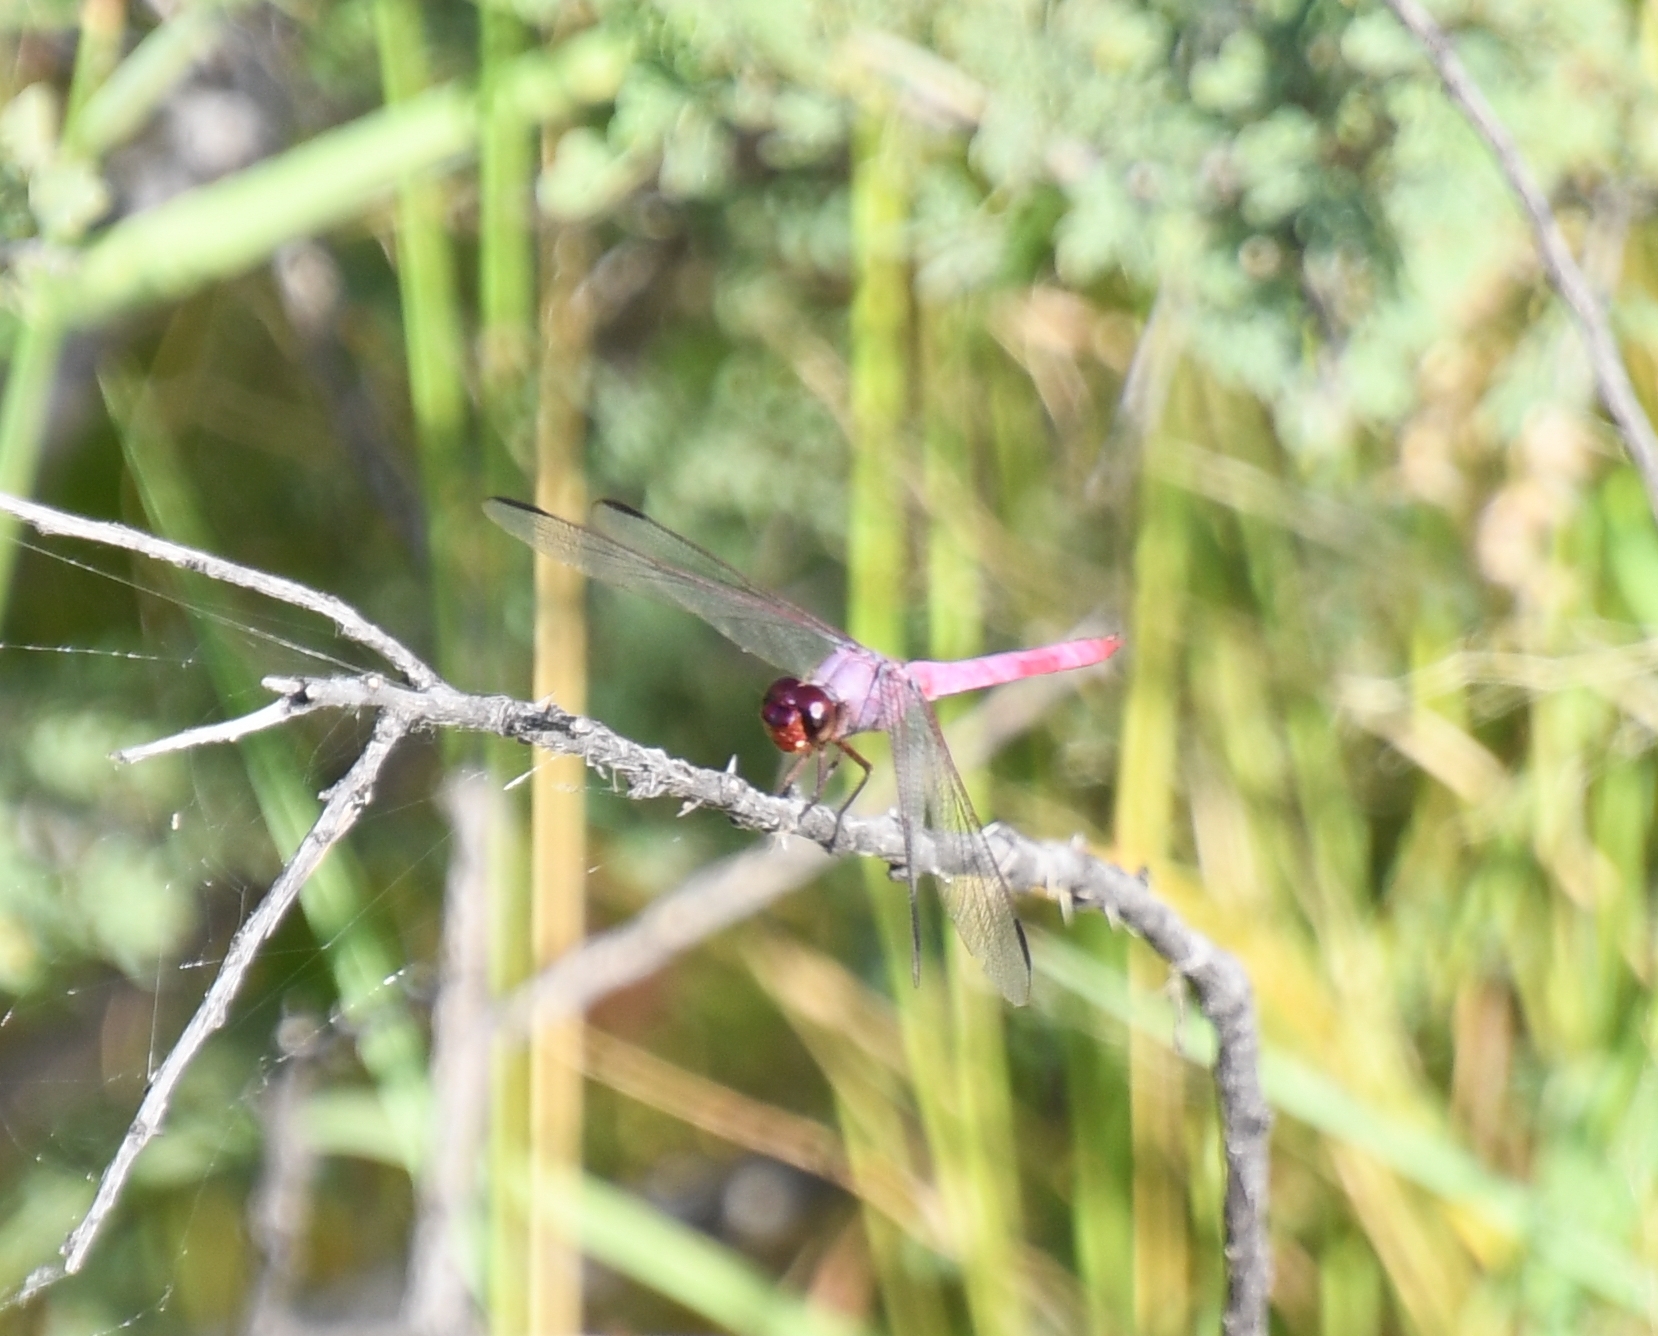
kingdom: Animalia
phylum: Arthropoda
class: Insecta
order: Odonata
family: Libellulidae
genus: Orthemis
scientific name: Orthemis ferruginea
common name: Roseate skimmer
